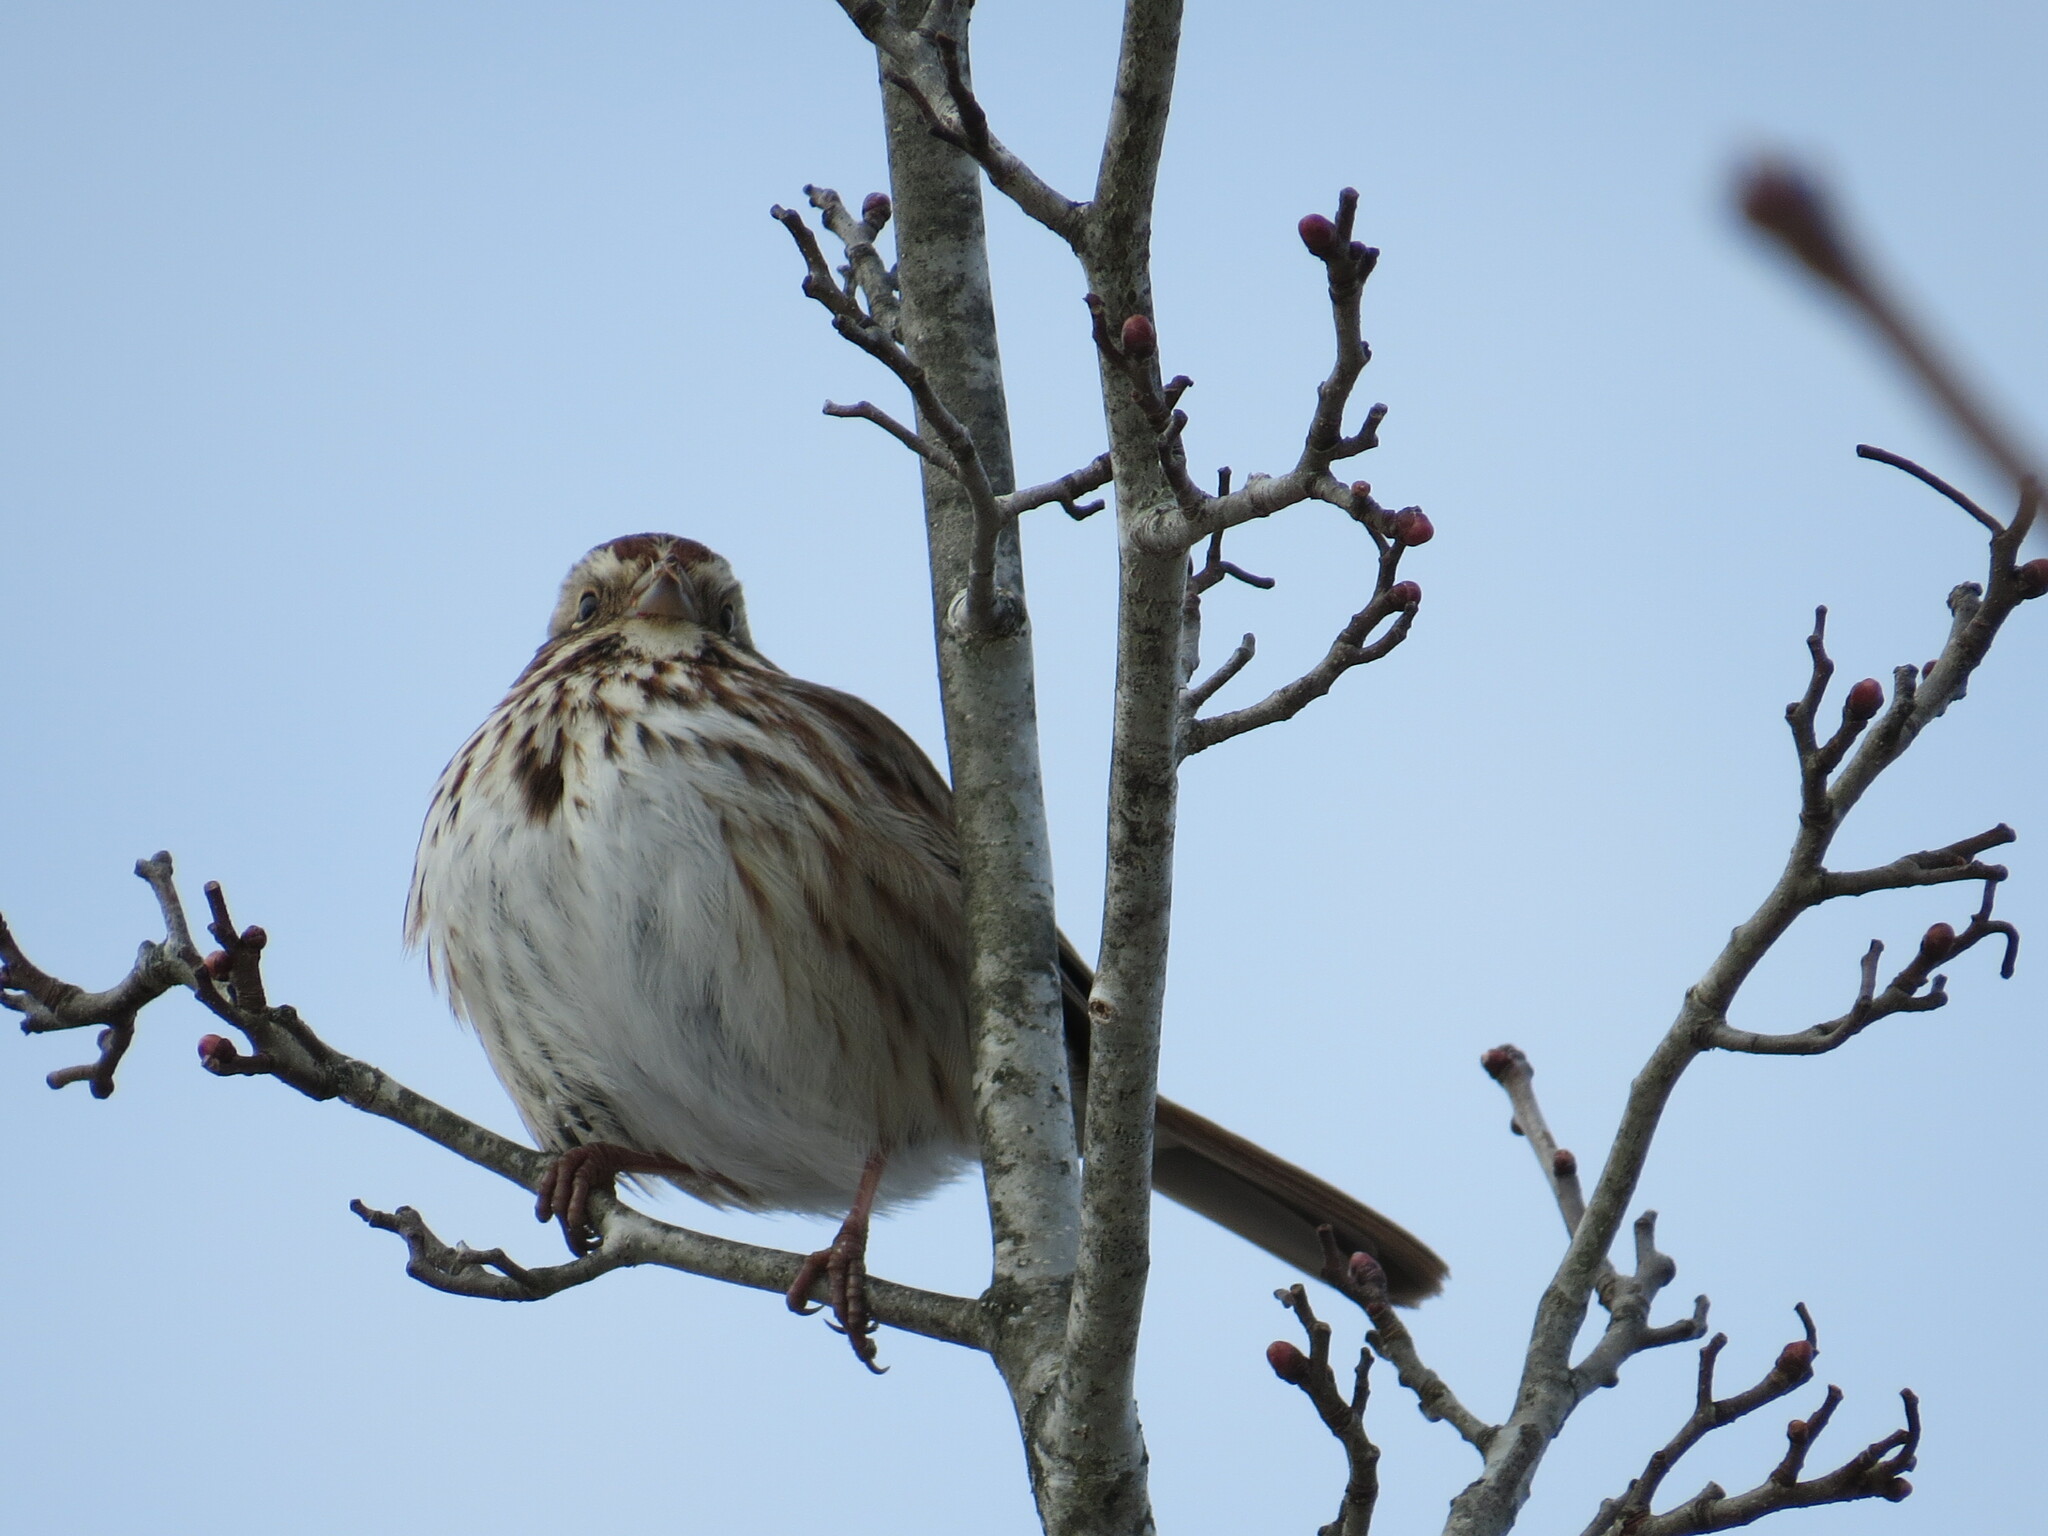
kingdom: Animalia
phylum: Chordata
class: Aves
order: Passeriformes
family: Passerellidae
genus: Melospiza
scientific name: Melospiza melodia
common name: Song sparrow
